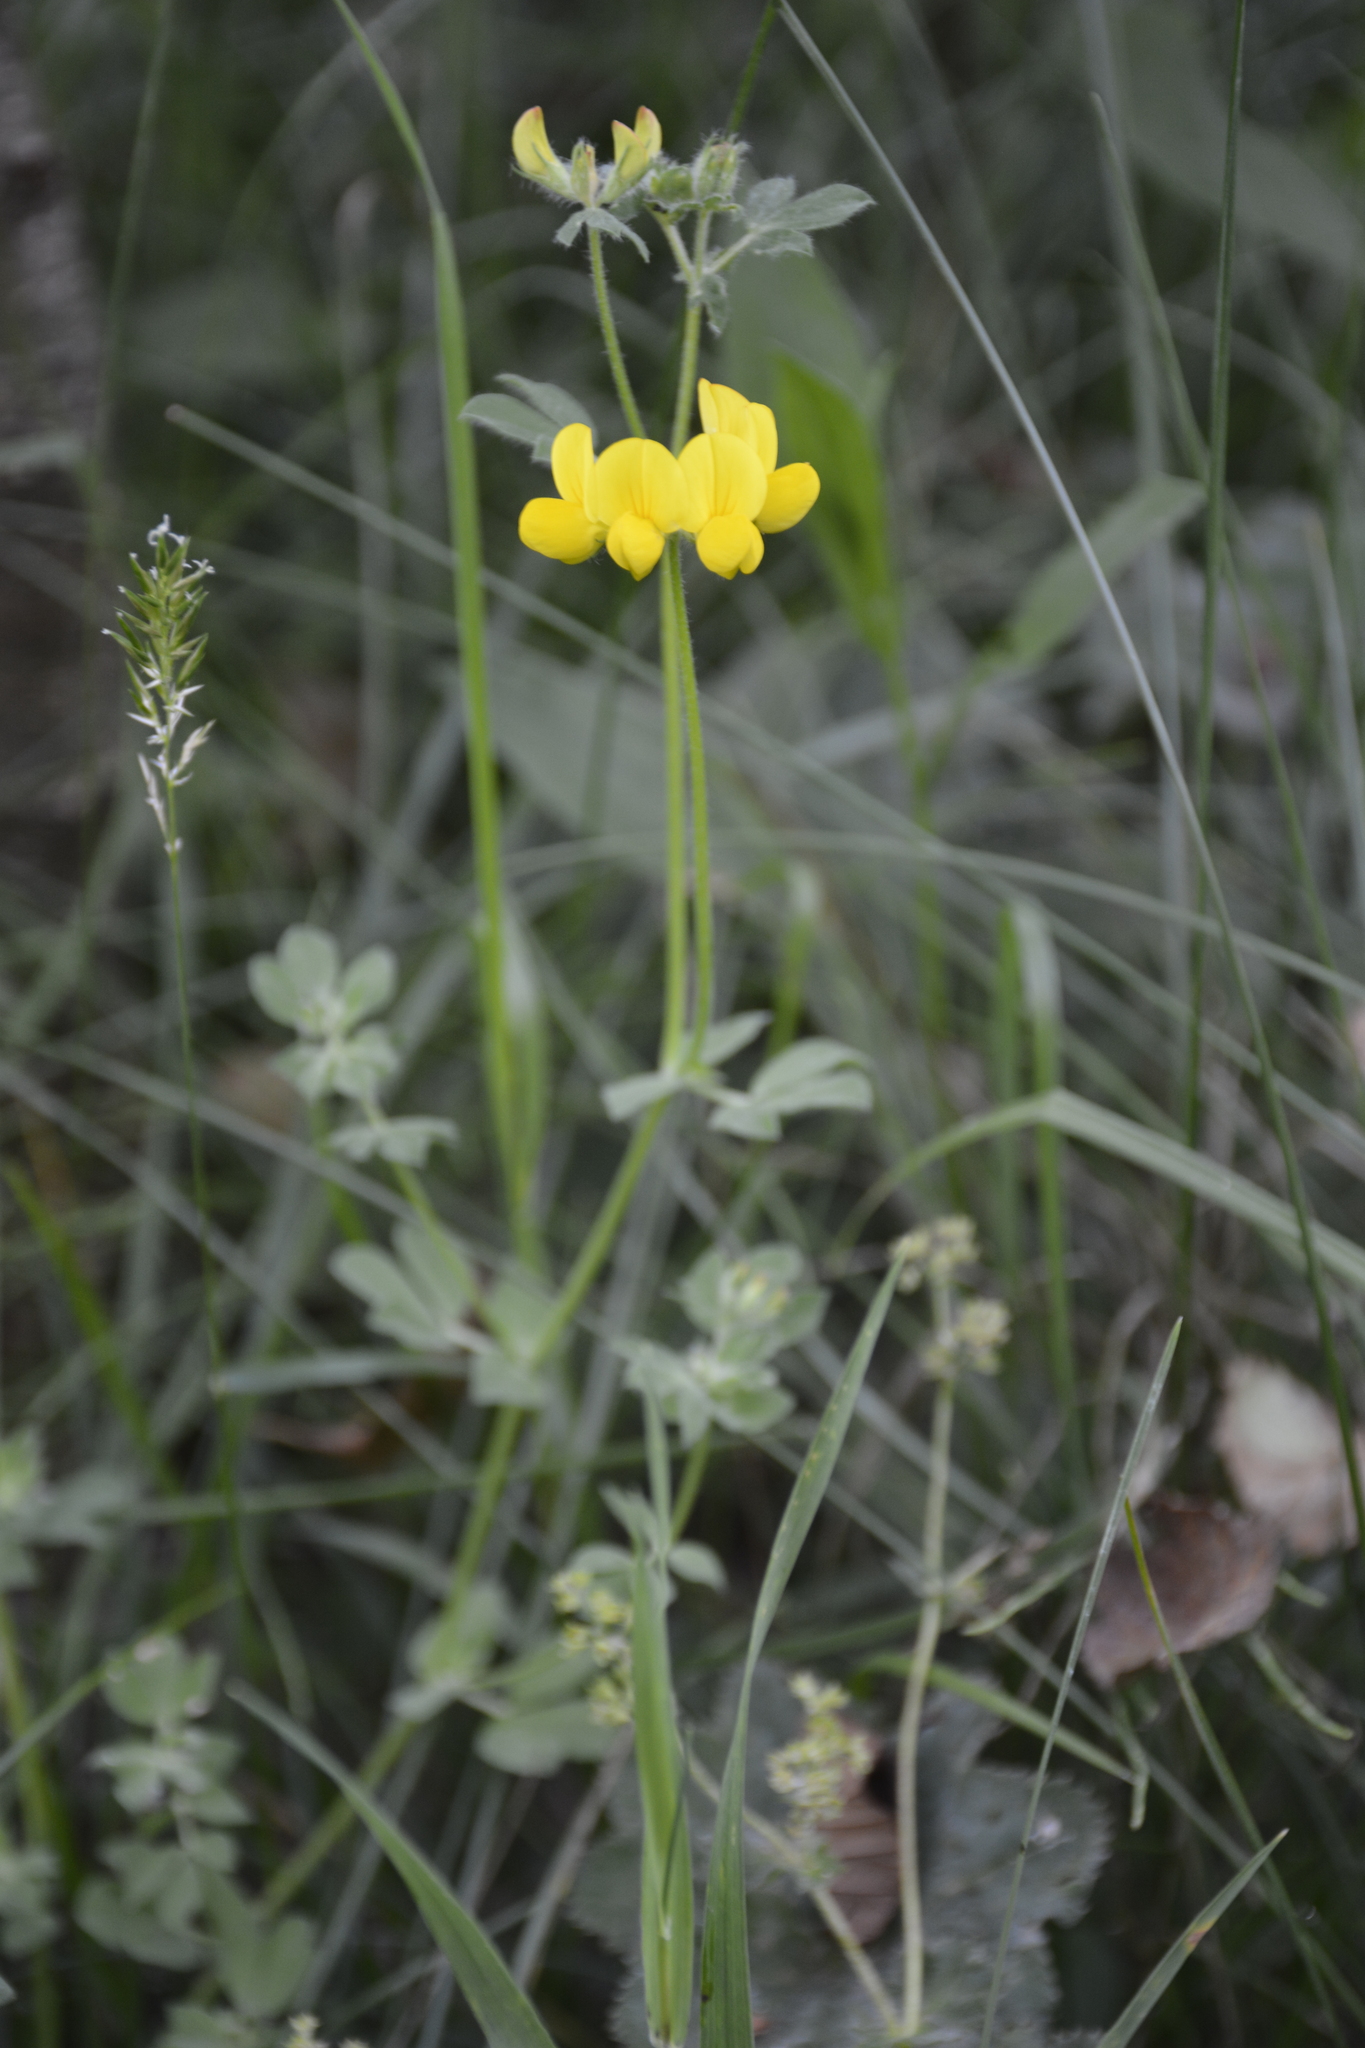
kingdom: Plantae
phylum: Tracheophyta
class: Magnoliopsida
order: Fabales
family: Fabaceae
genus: Lotus
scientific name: Lotus corniculatus
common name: Common bird's-foot-trefoil
